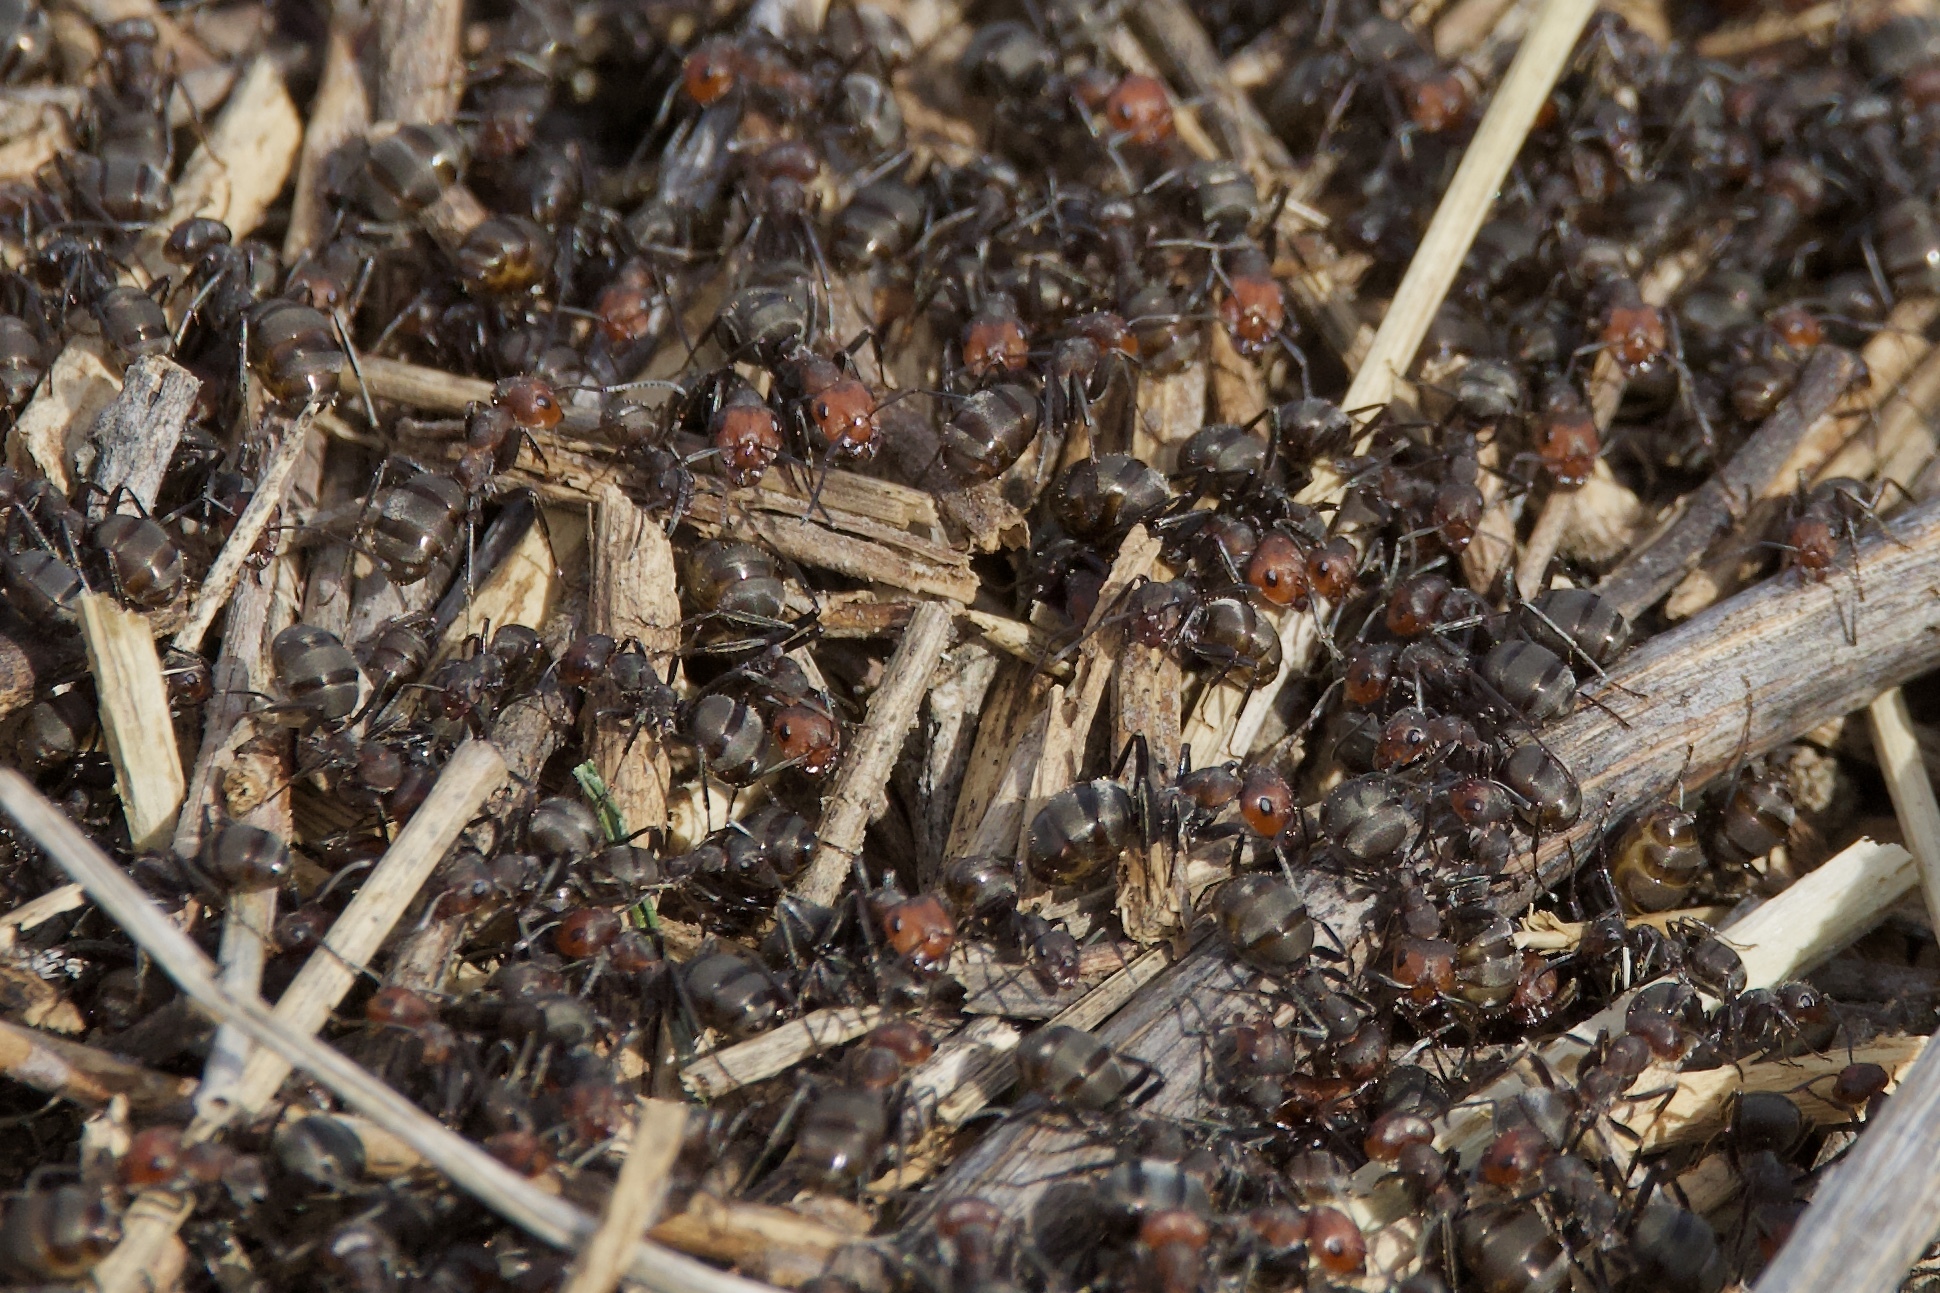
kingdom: Animalia
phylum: Arthropoda
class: Insecta
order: Hymenoptera
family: Formicidae
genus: Formica
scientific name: Formica obscuripes
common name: Western thatching ant
